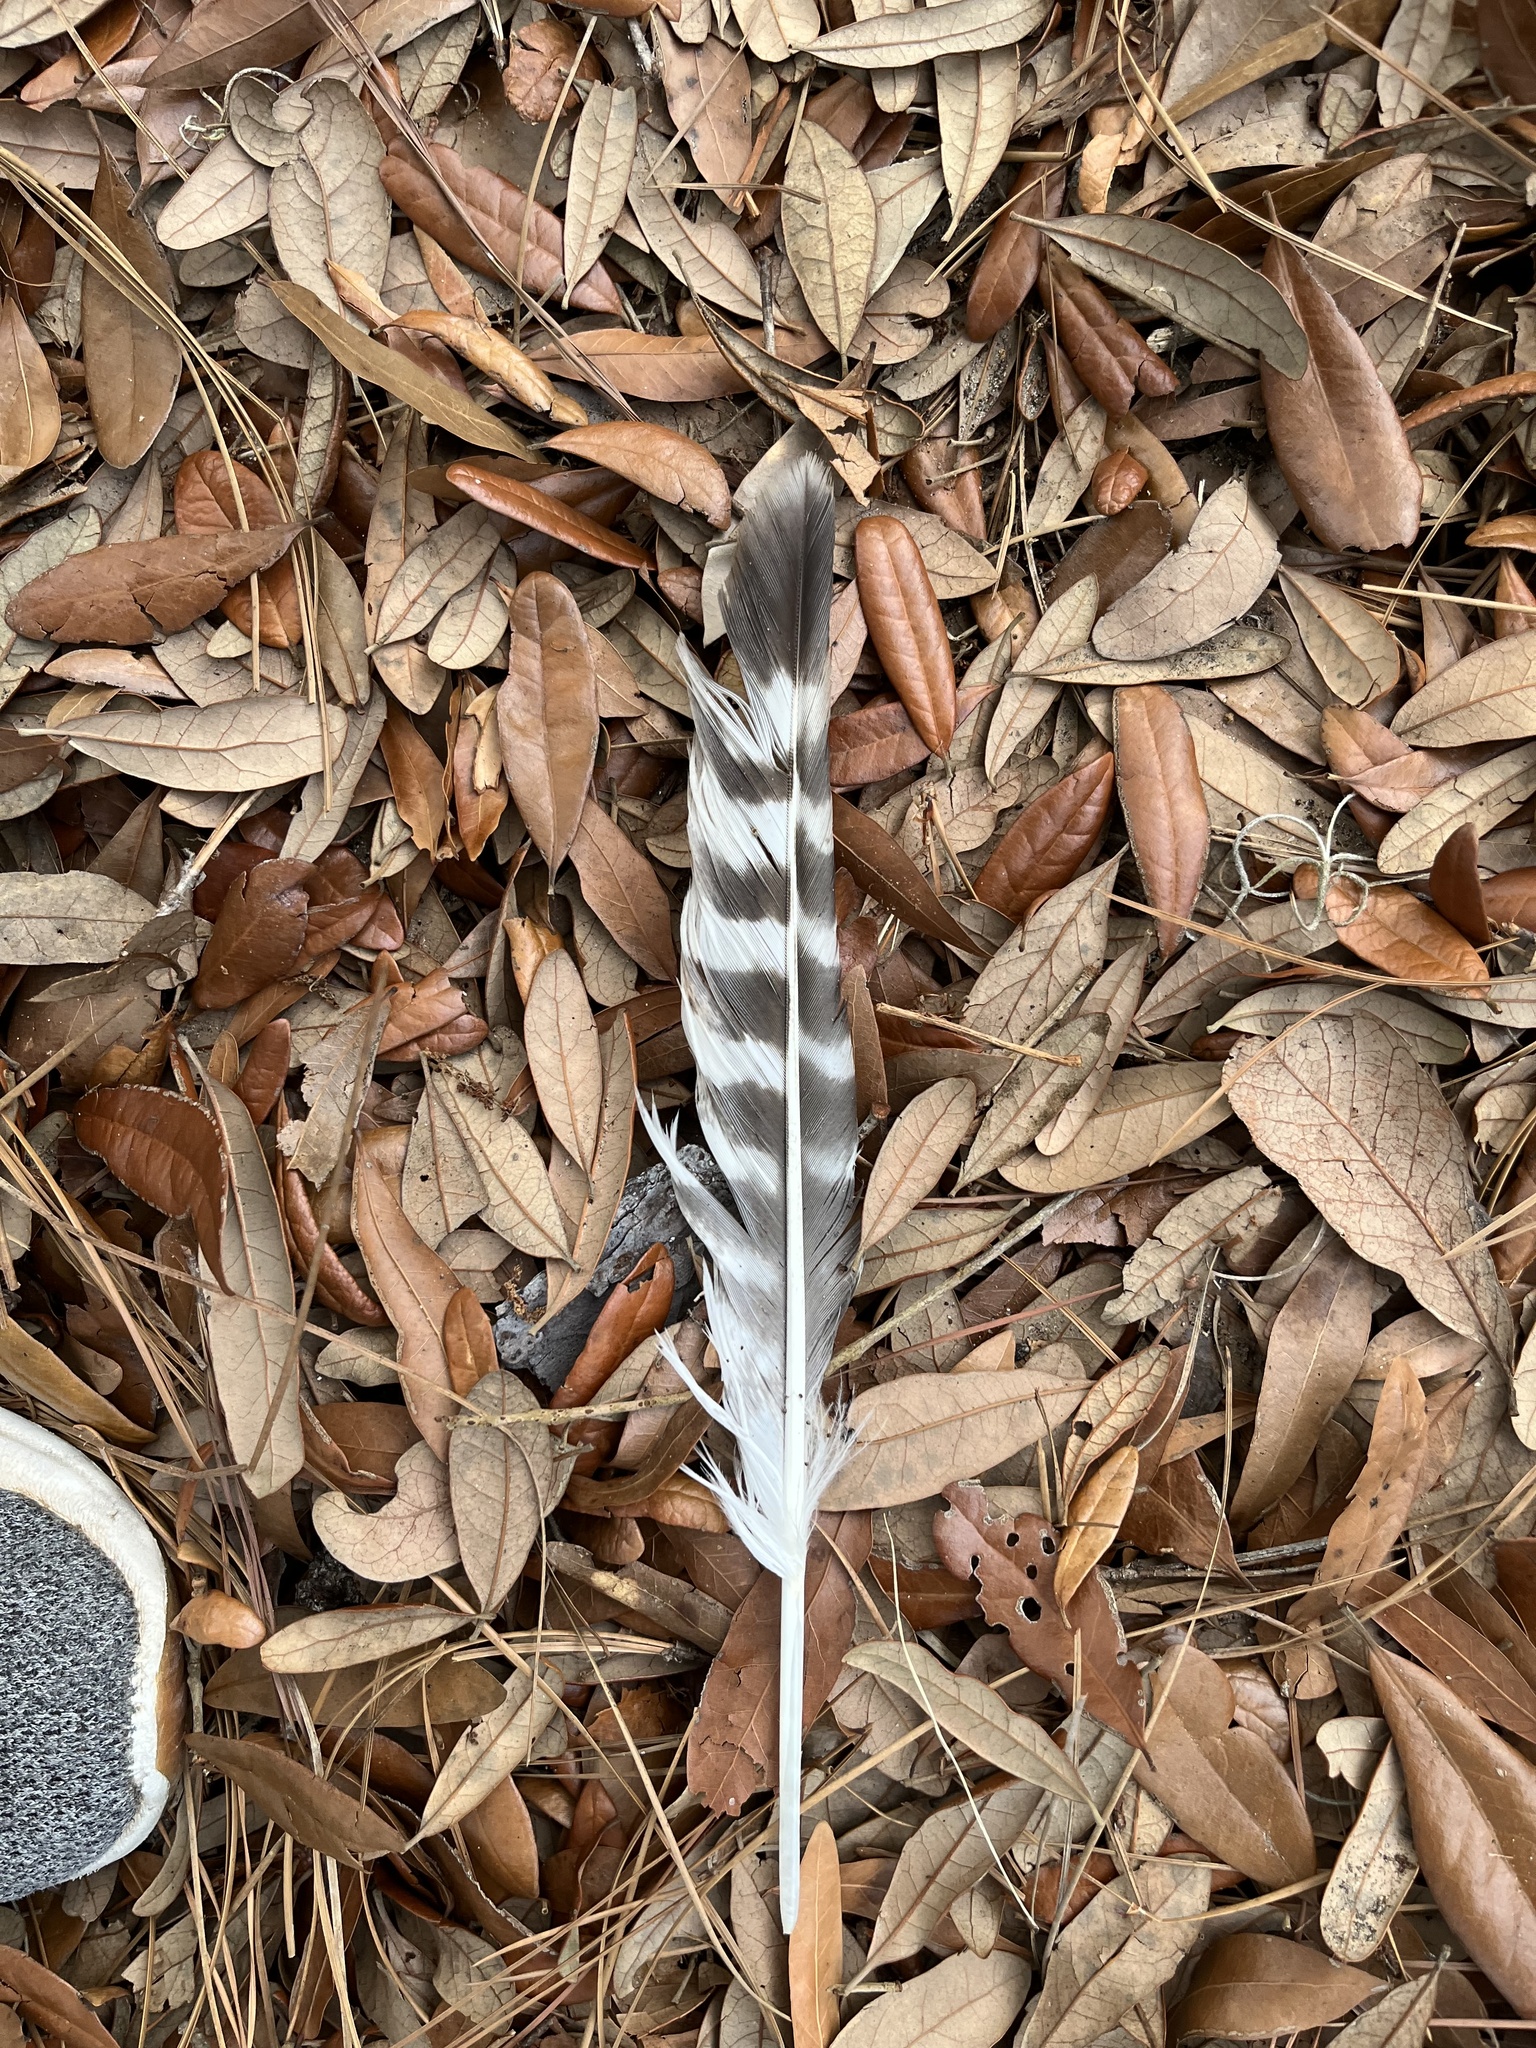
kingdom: Animalia
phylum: Chordata
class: Aves
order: Accipitriformes
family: Accipitridae
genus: Buteo
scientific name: Buteo lineatus
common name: Red-shouldered hawk
